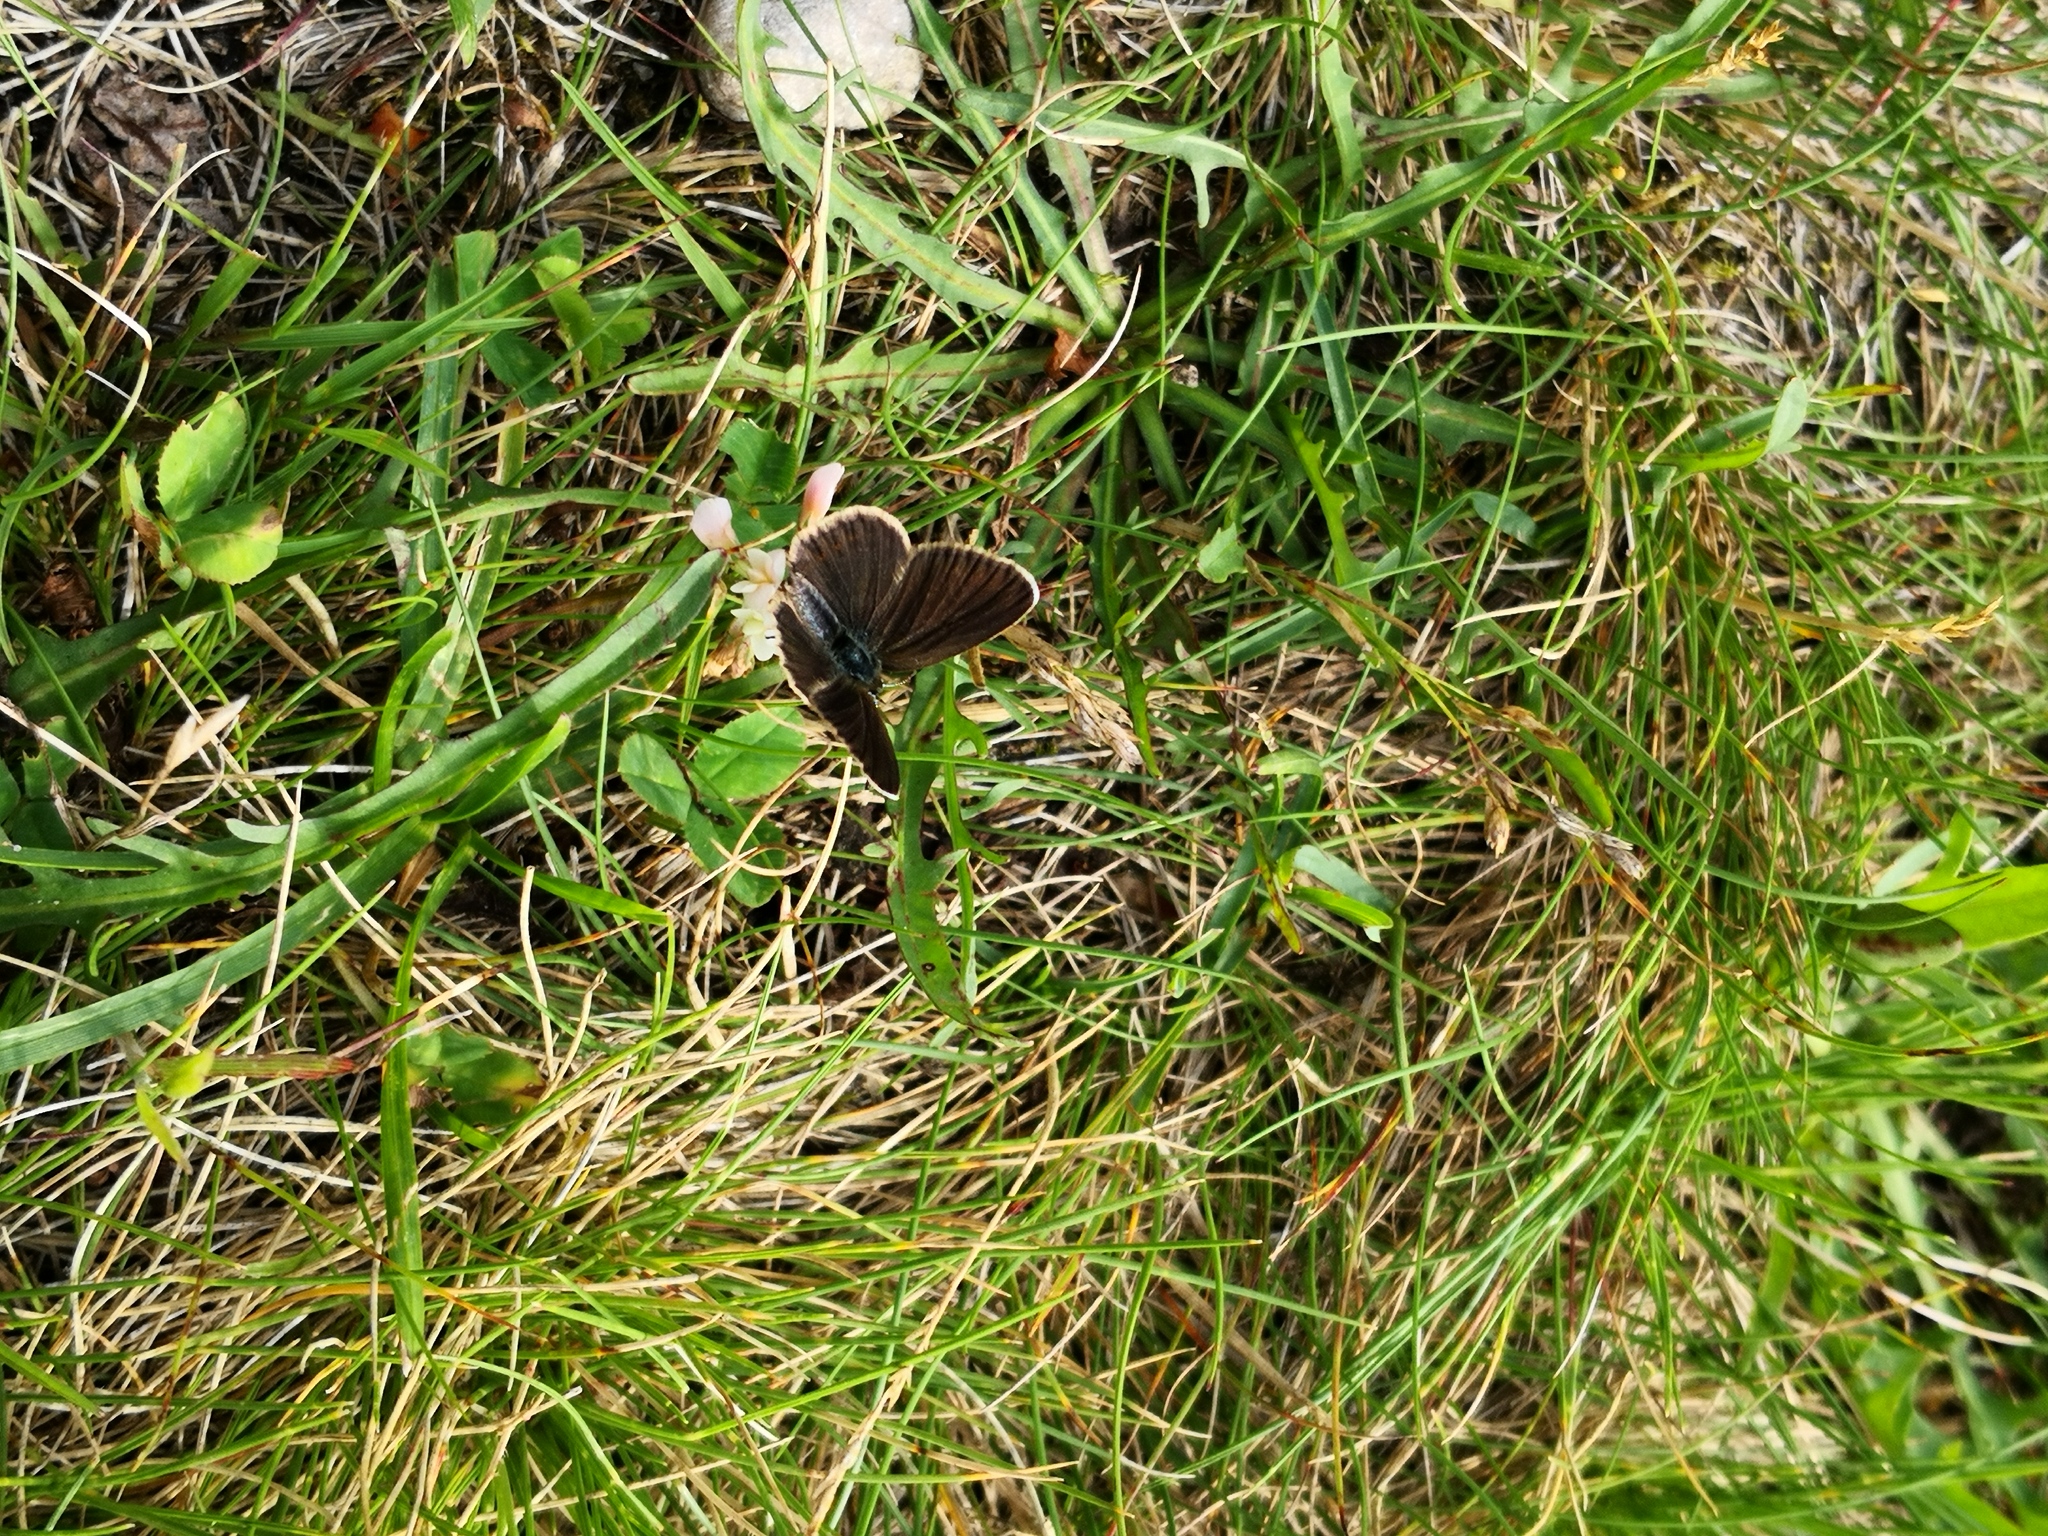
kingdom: Animalia
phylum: Arthropoda
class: Insecta
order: Lepidoptera
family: Lycaenidae
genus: Plebejus
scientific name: Plebejus argus
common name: Silver-studded blue
